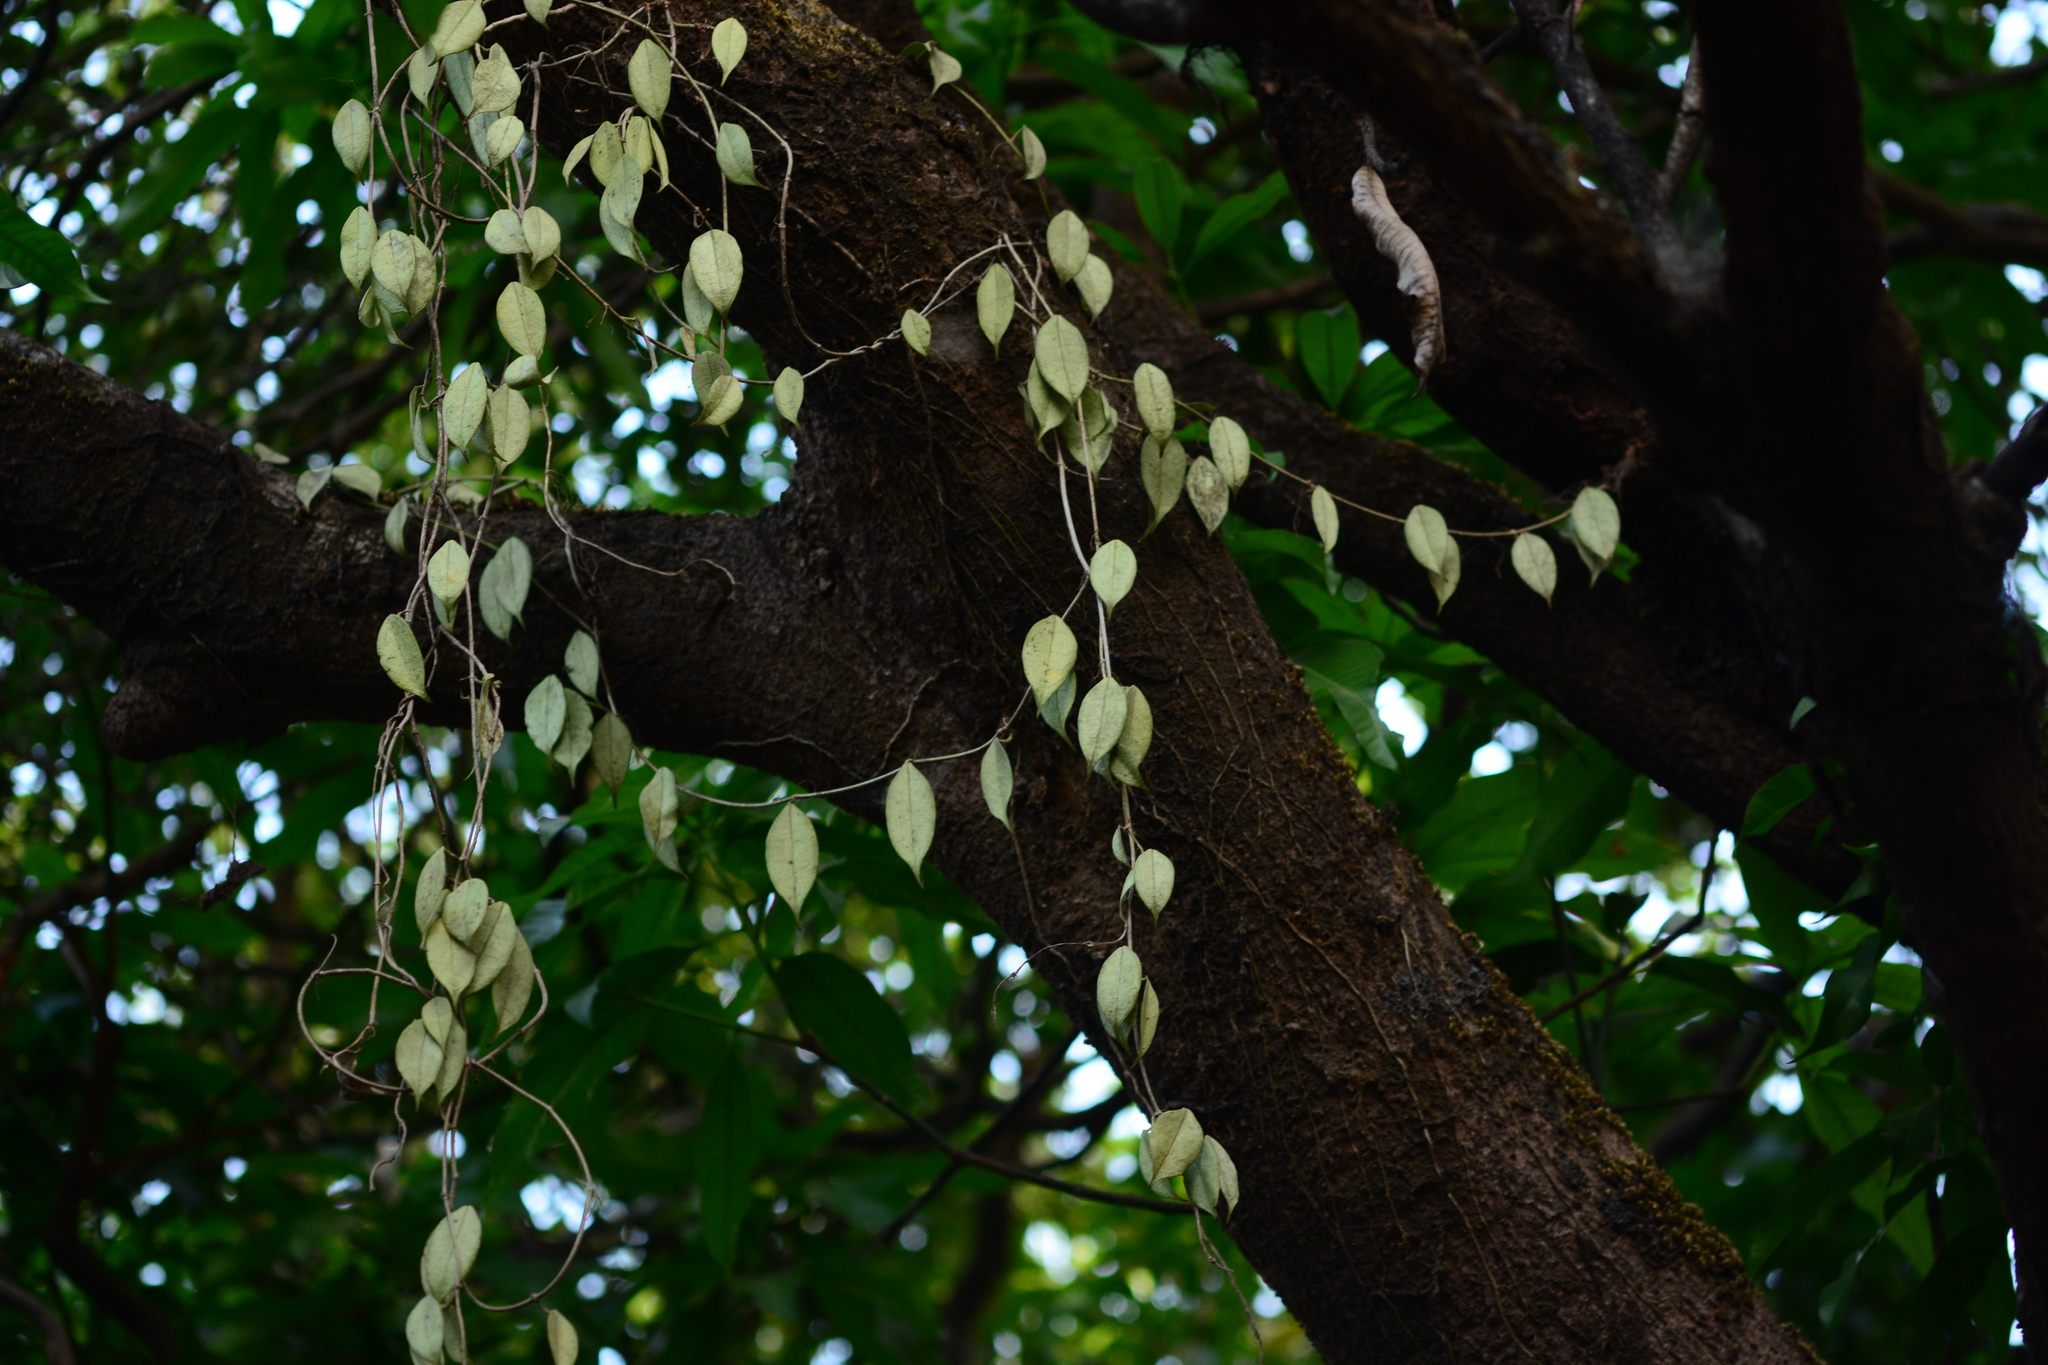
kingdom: Plantae
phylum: Tracheophyta
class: Magnoliopsida
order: Gentianales
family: Apocynaceae
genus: Hoya
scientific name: Hoya wightii
